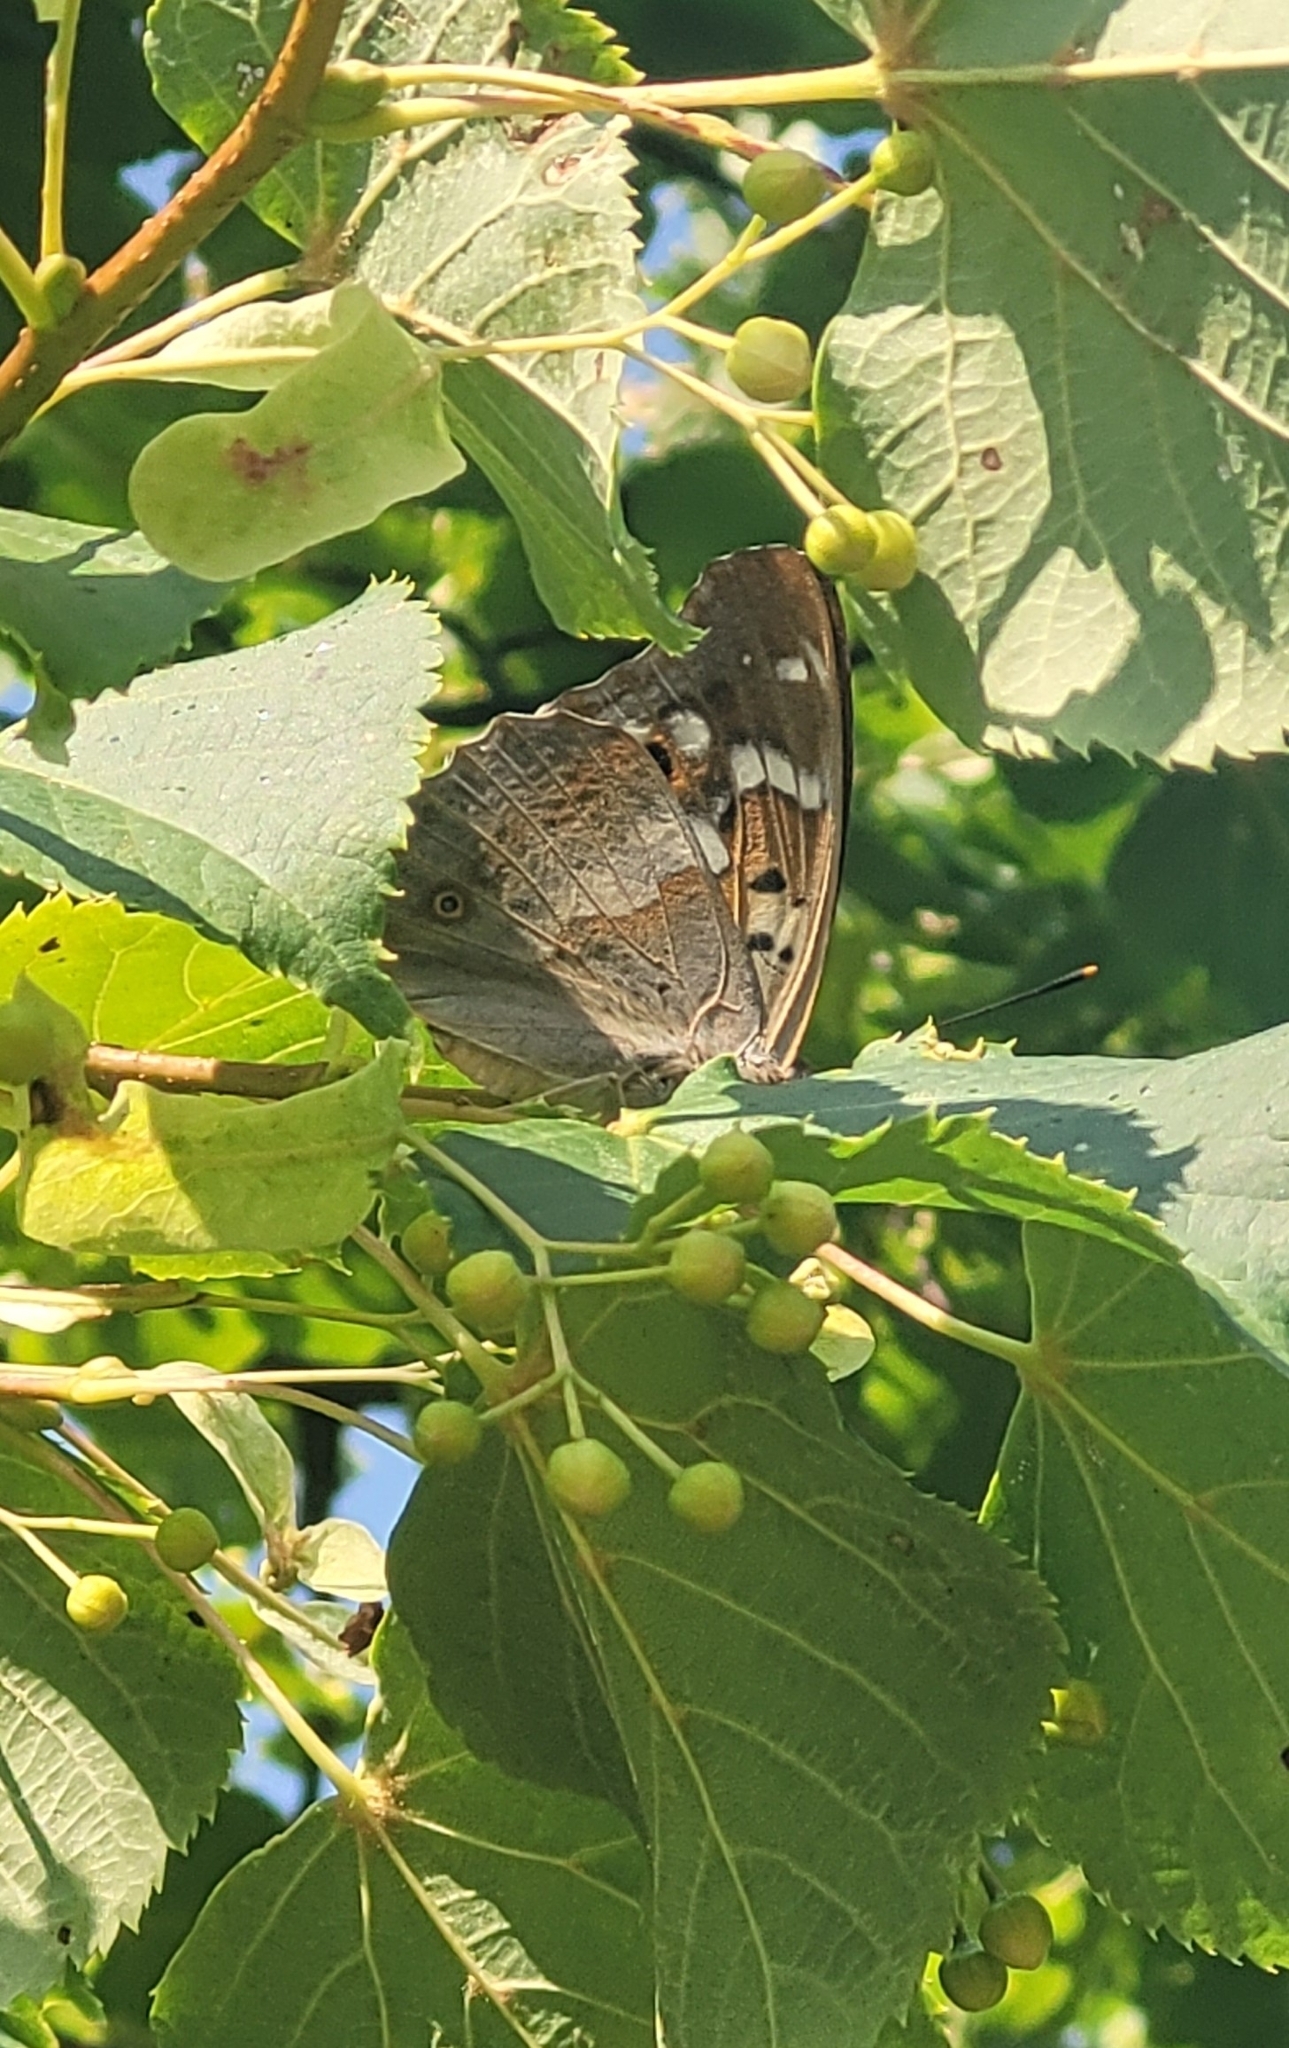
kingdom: Animalia
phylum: Arthropoda
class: Insecta
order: Lepidoptera
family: Nymphalidae
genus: Apatura
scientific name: Apatura ilia
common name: Lesser purple emperor
